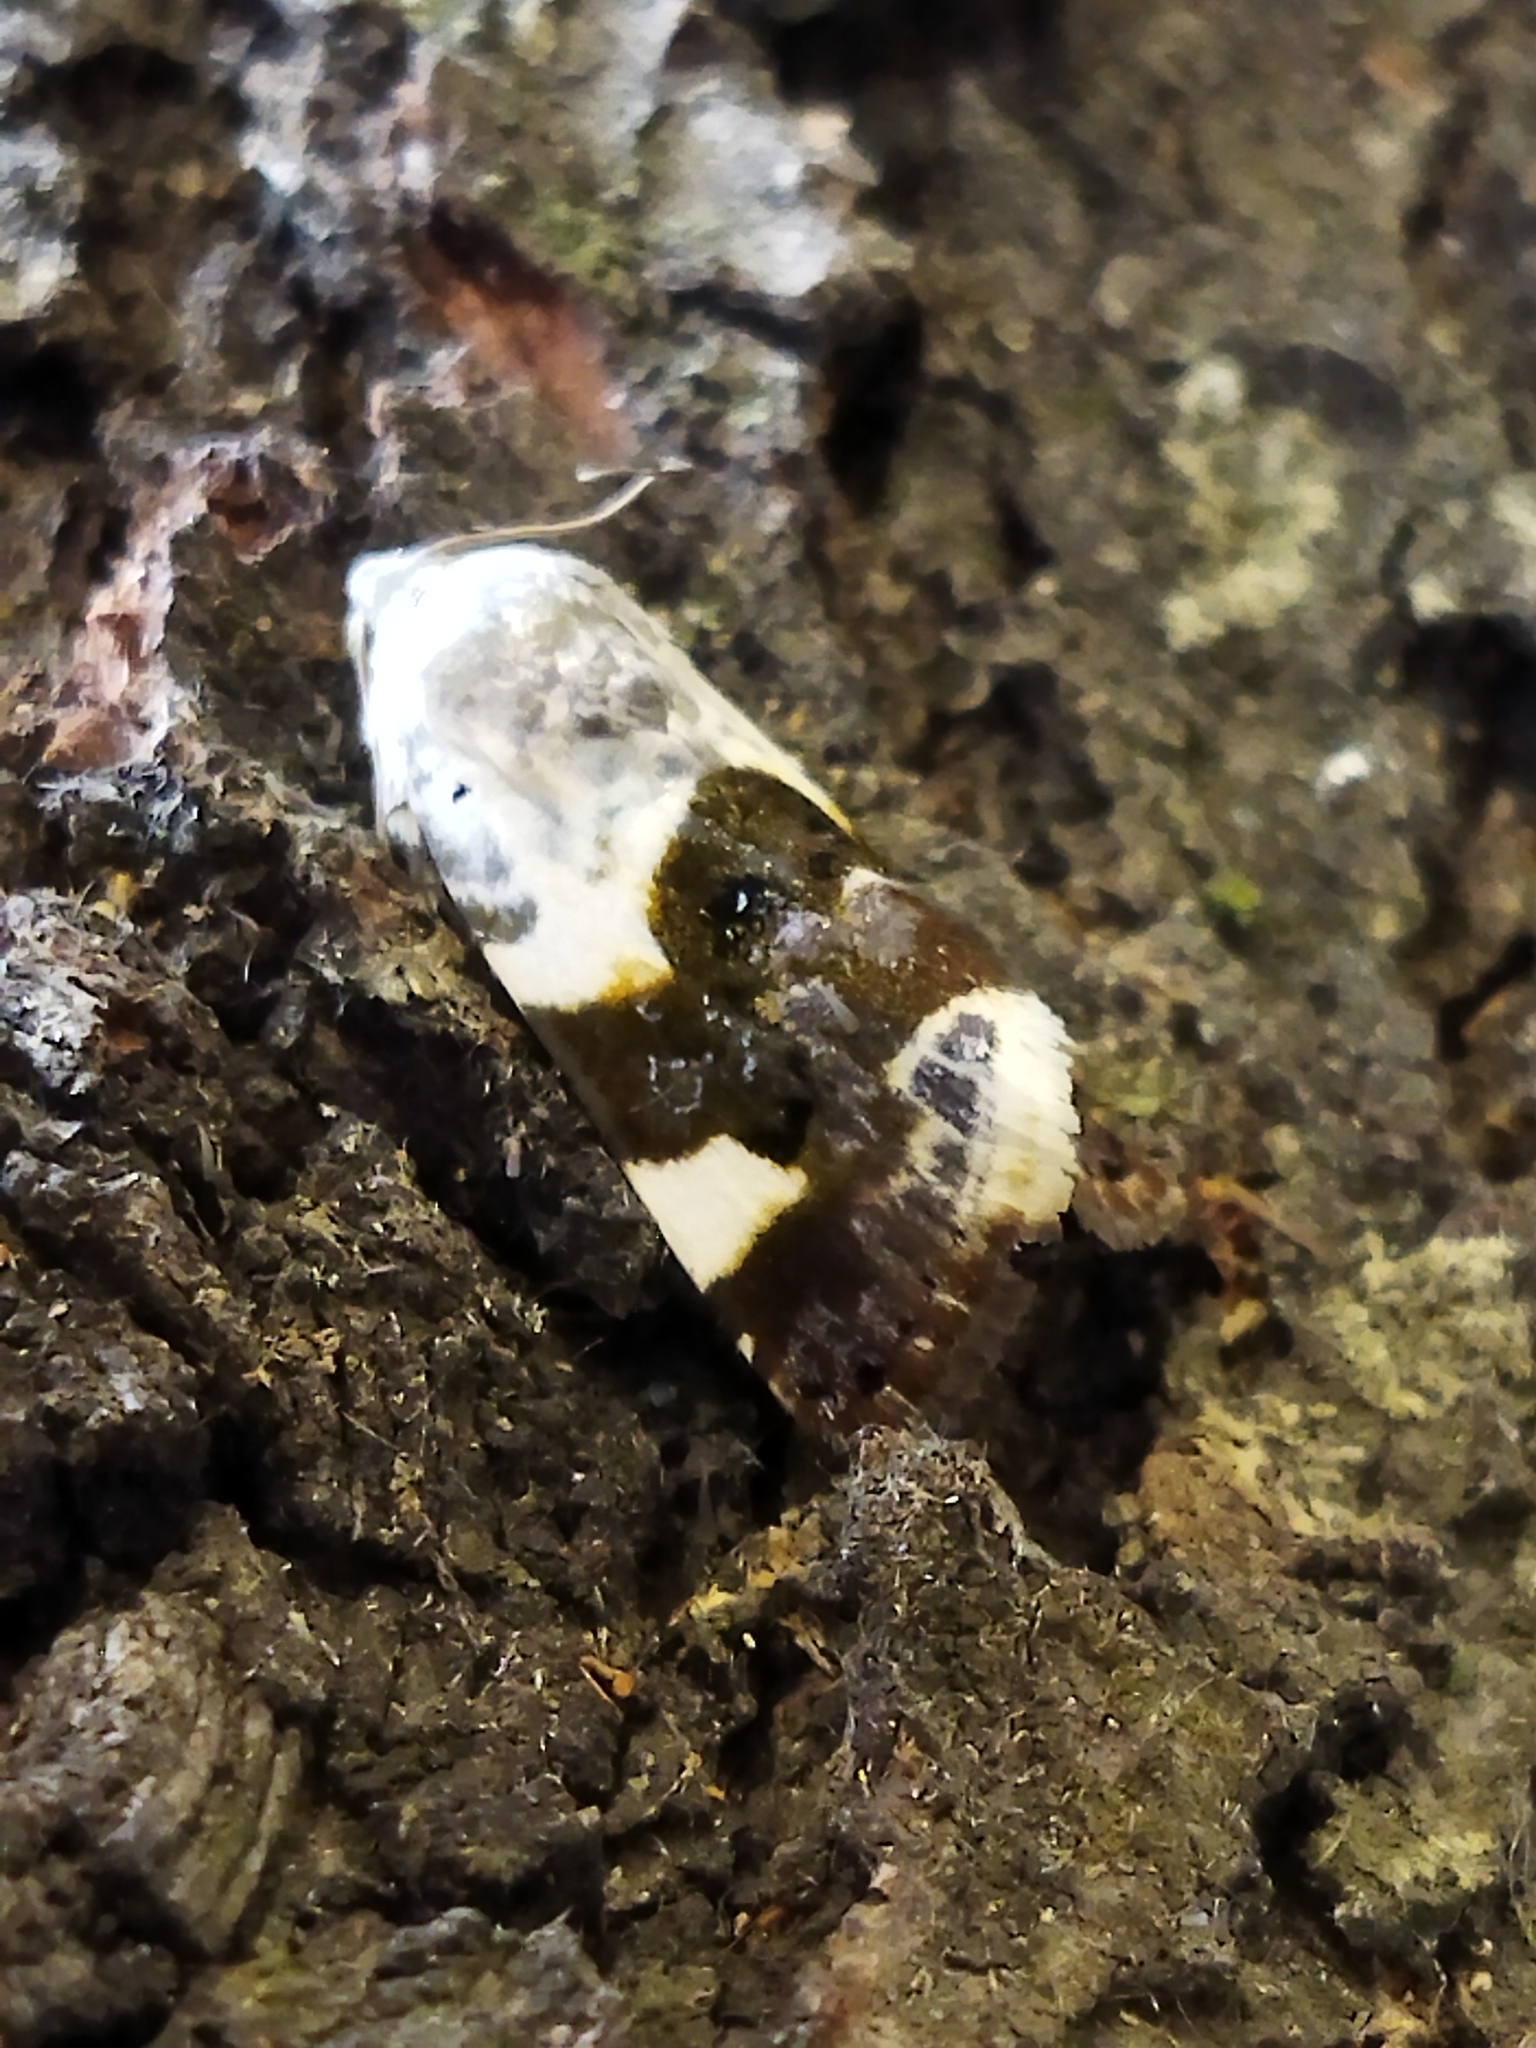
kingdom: Animalia
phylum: Arthropoda
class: Insecta
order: Lepidoptera
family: Noctuidae
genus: Acontia
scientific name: Acontia lucida
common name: Pale shoulder
